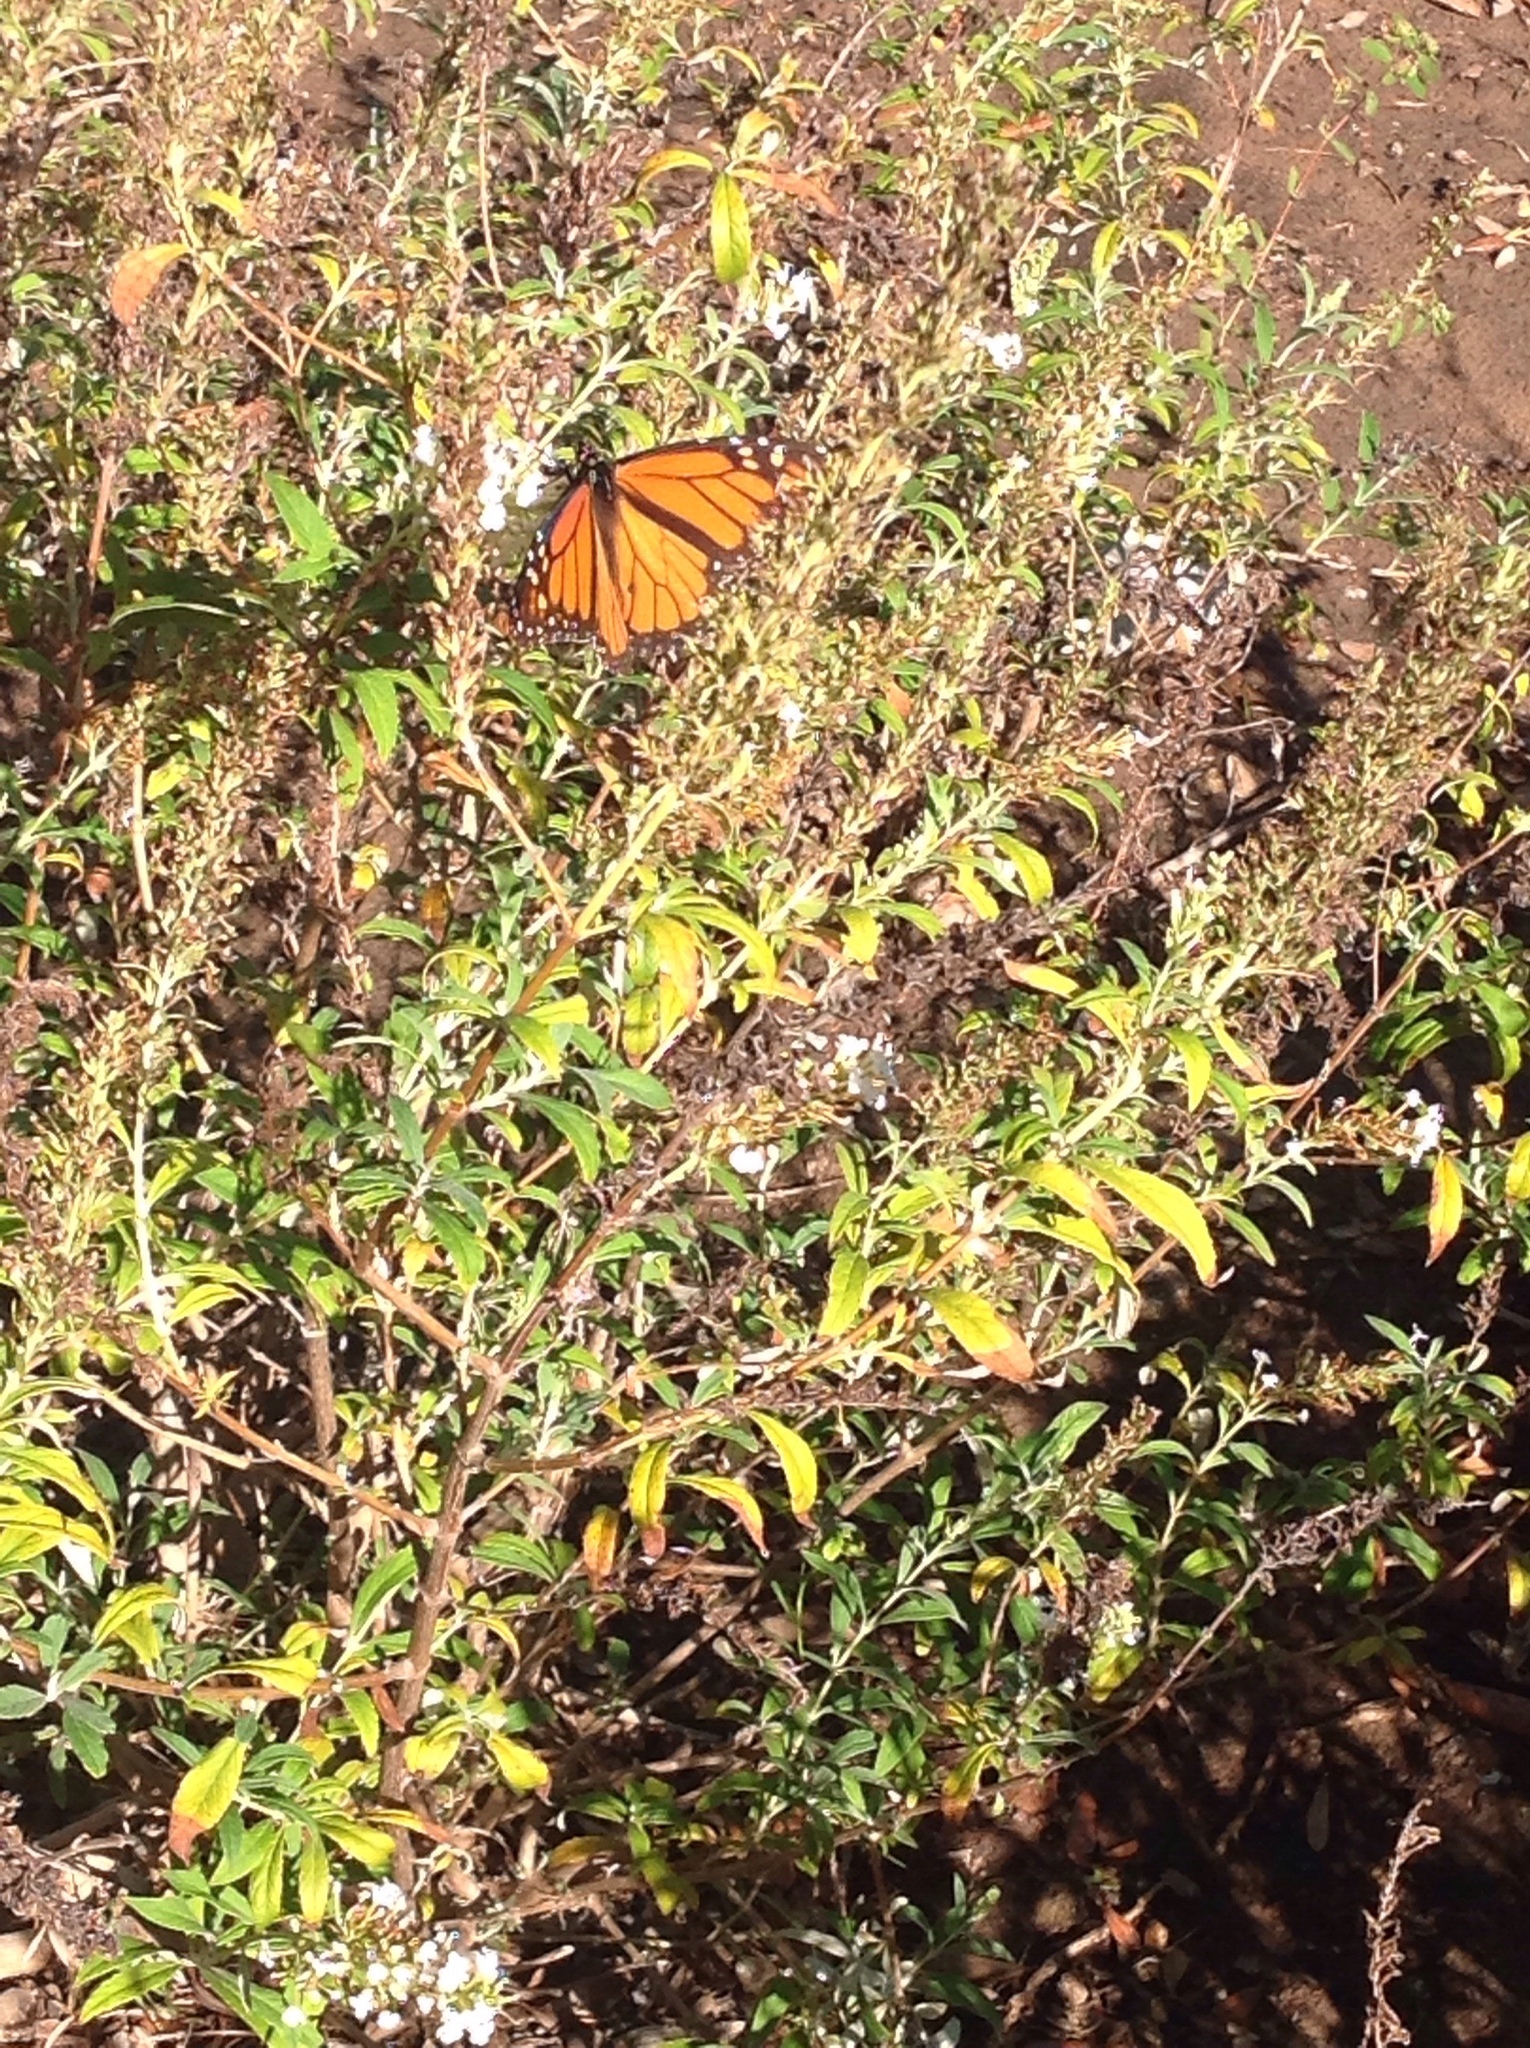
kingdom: Animalia
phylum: Arthropoda
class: Insecta
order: Lepidoptera
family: Nymphalidae
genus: Danaus
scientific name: Danaus plexippus
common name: Monarch
